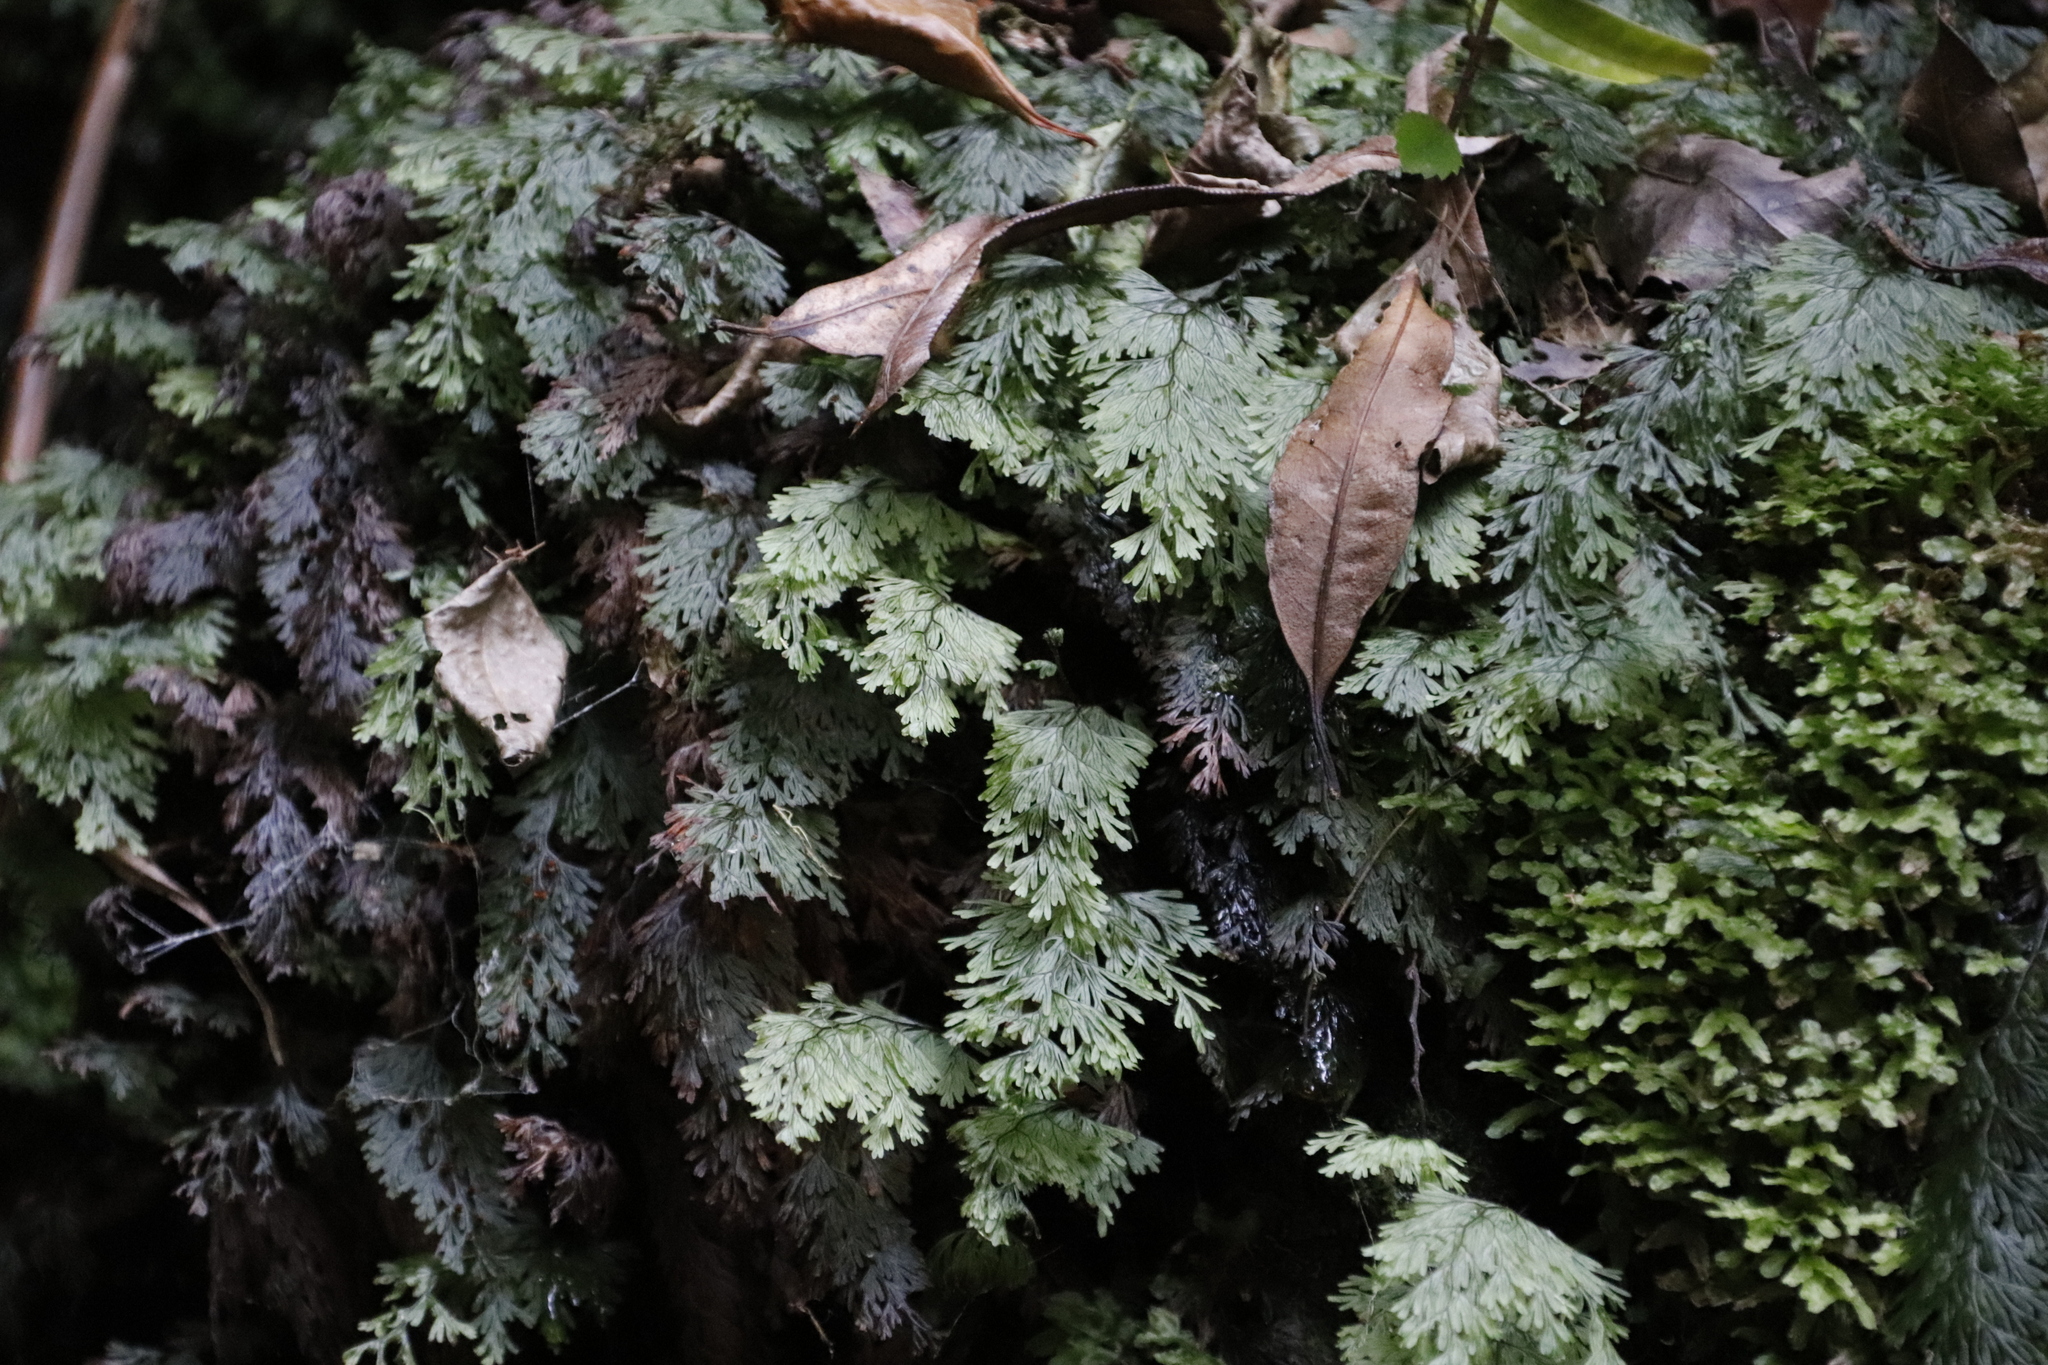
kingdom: Plantae
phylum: Tracheophyta
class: Polypodiopsida
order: Hymenophyllales
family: Hymenophyllaceae
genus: Hymenophyllum
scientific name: Hymenophyllum tunbrigense
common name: Tunbridge filmy fern
